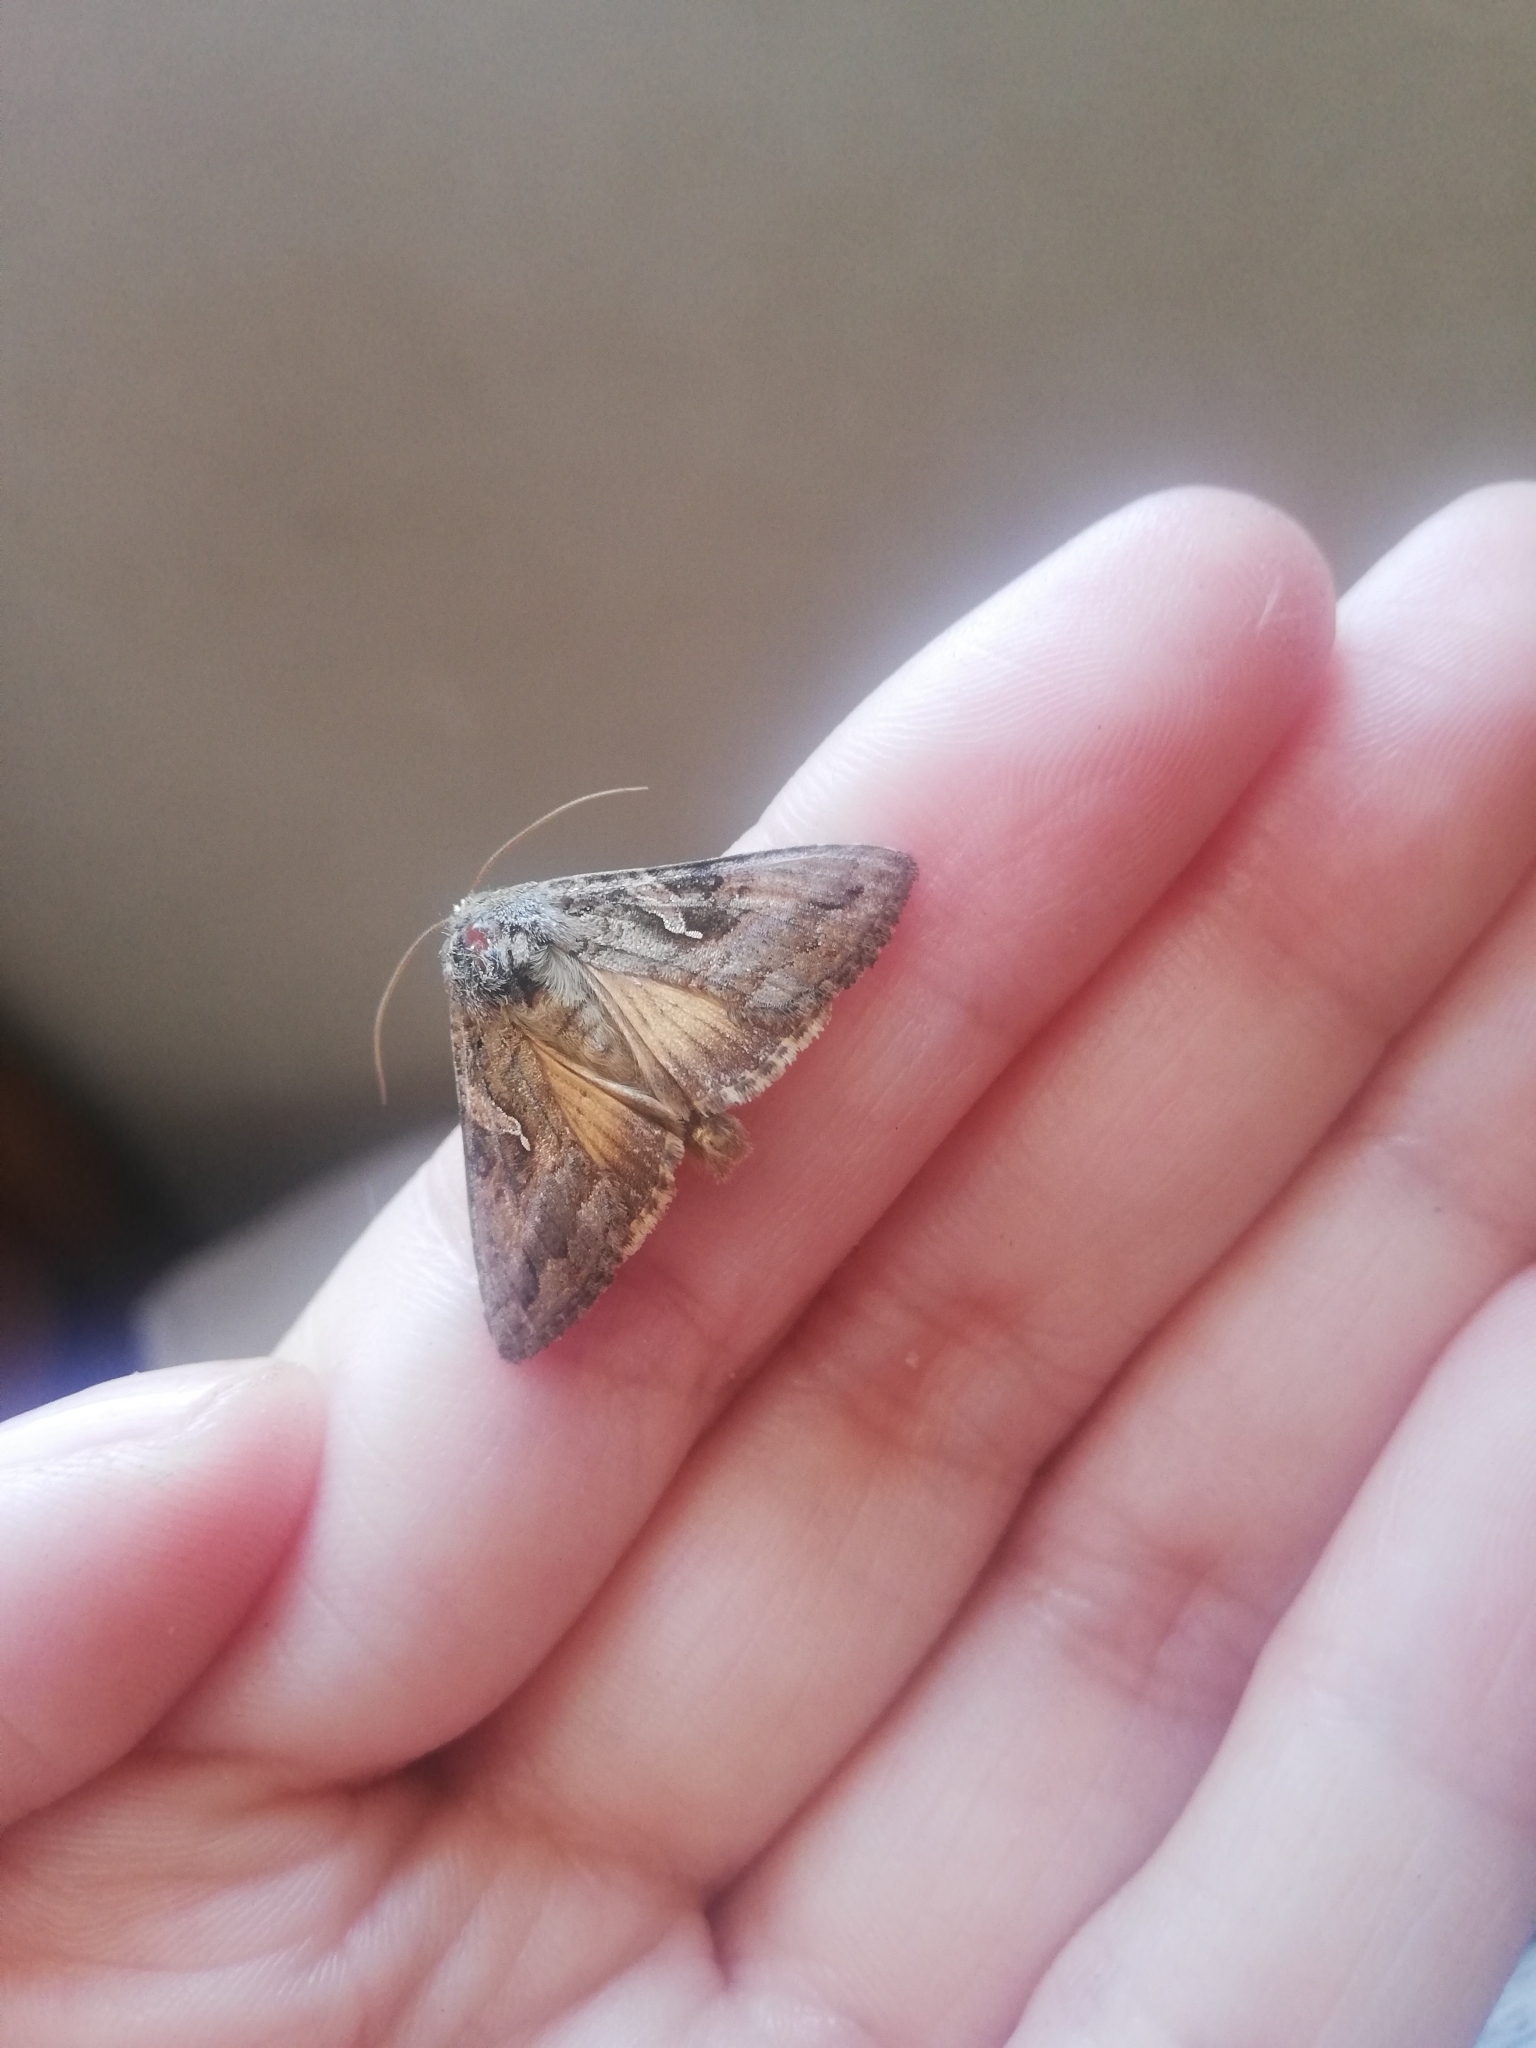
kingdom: Animalia
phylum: Arthropoda
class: Insecta
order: Lepidoptera
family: Noctuidae
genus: Rachiplusia
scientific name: Rachiplusia nu
